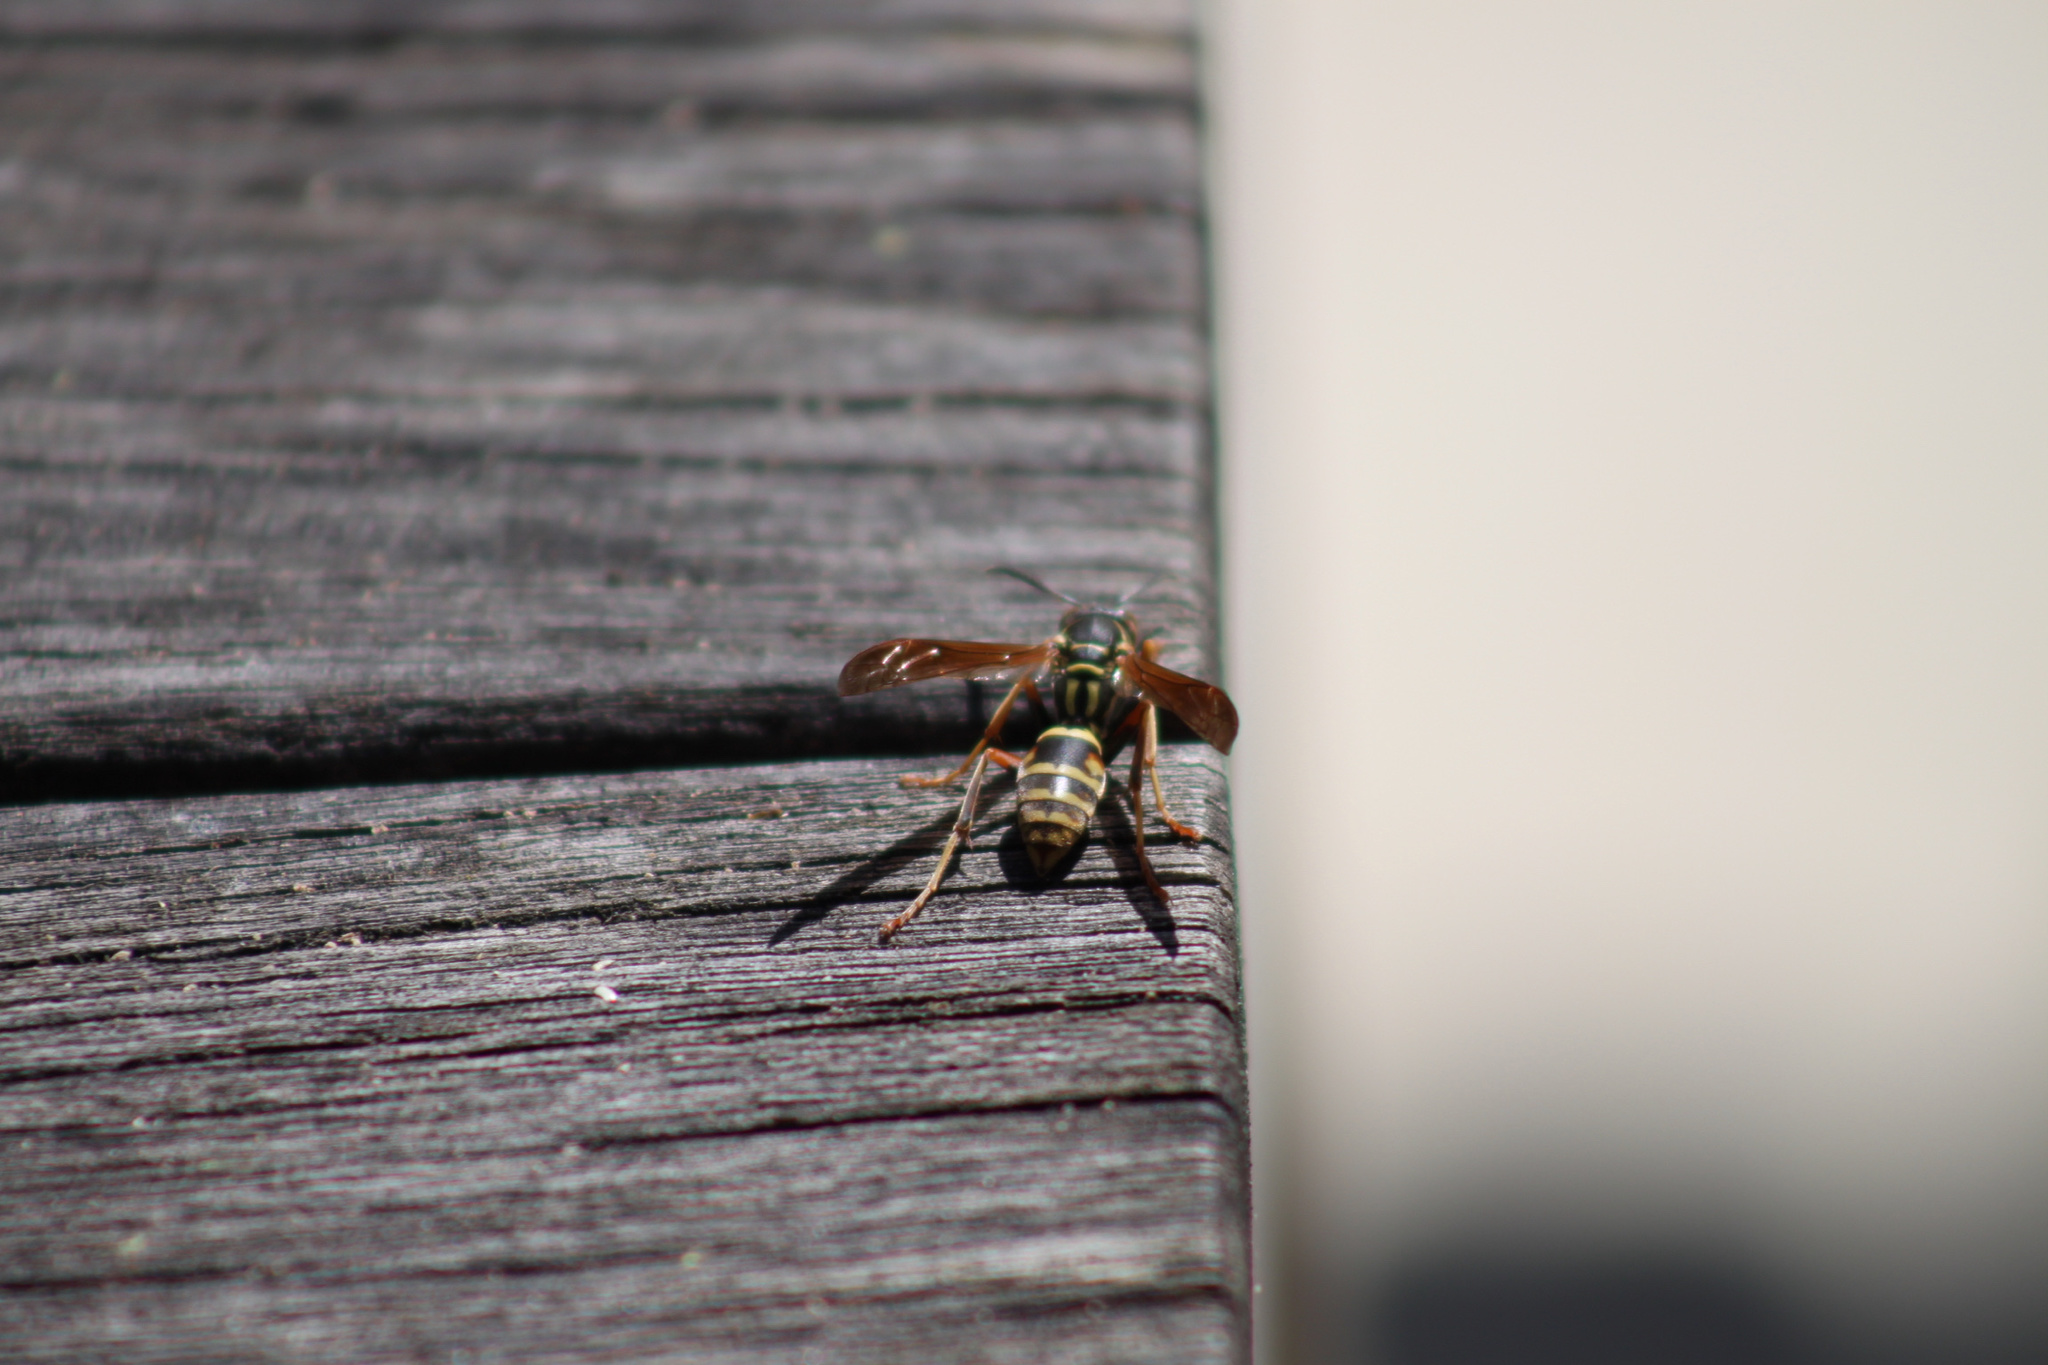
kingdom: Animalia
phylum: Arthropoda
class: Insecta
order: Hymenoptera
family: Eumenidae
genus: Polistes
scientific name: Polistes fuscatus
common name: Dark paper wasp
